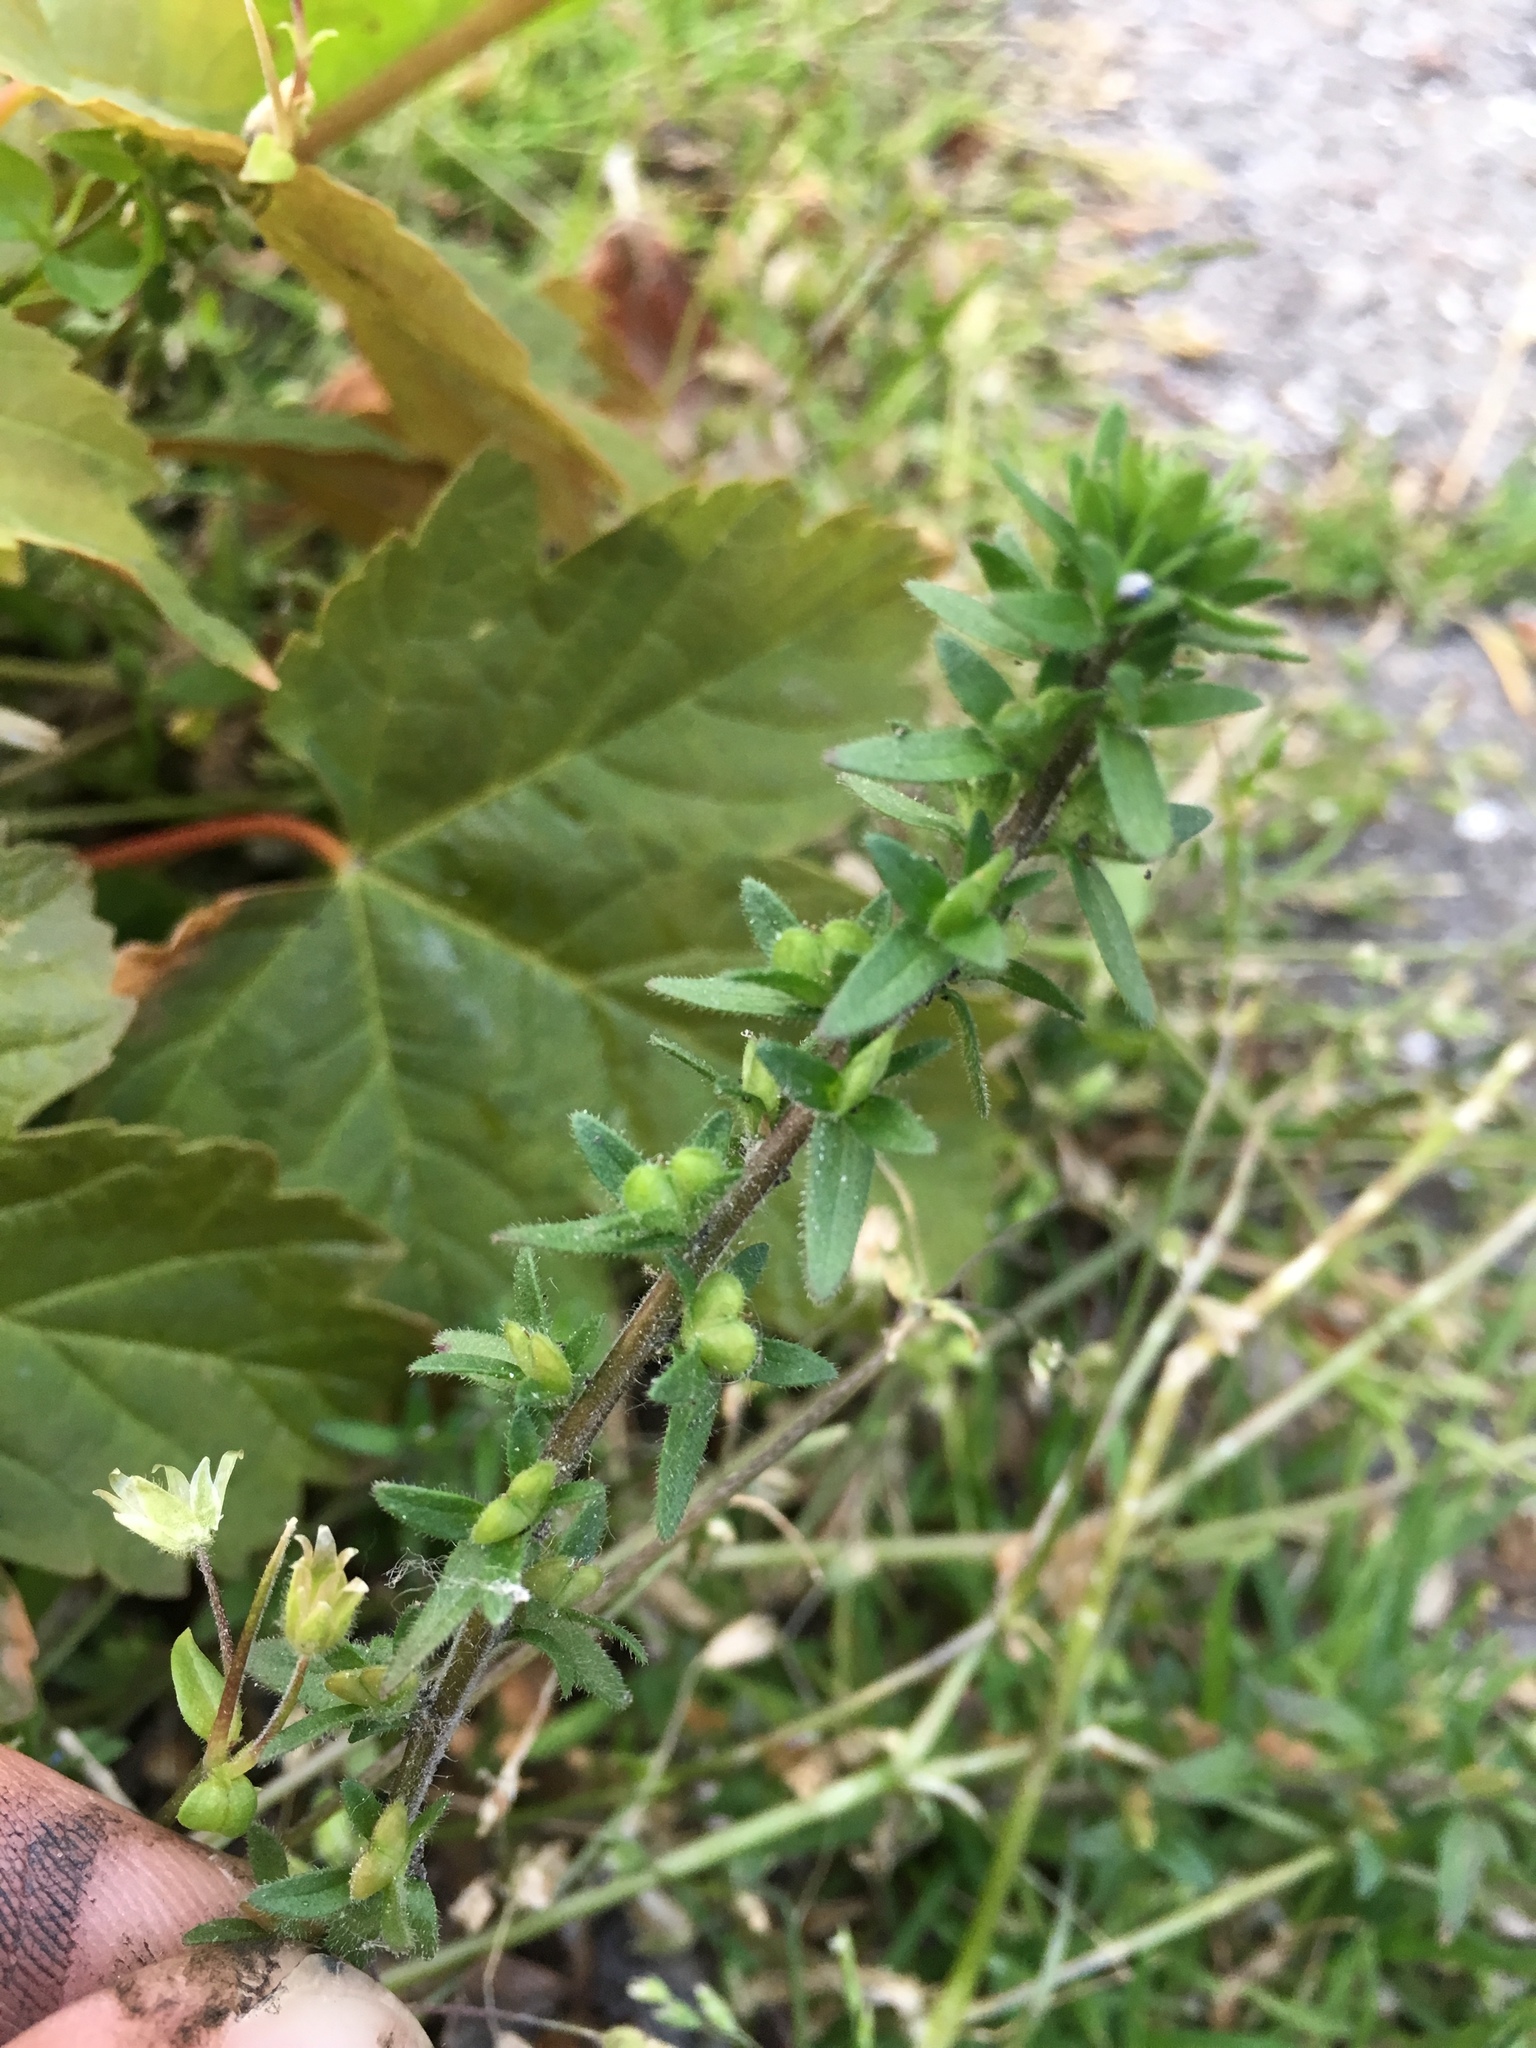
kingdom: Plantae
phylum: Tracheophyta
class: Magnoliopsida
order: Lamiales
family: Plantaginaceae
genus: Veronica
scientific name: Veronica arvensis
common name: Corn speedwell
